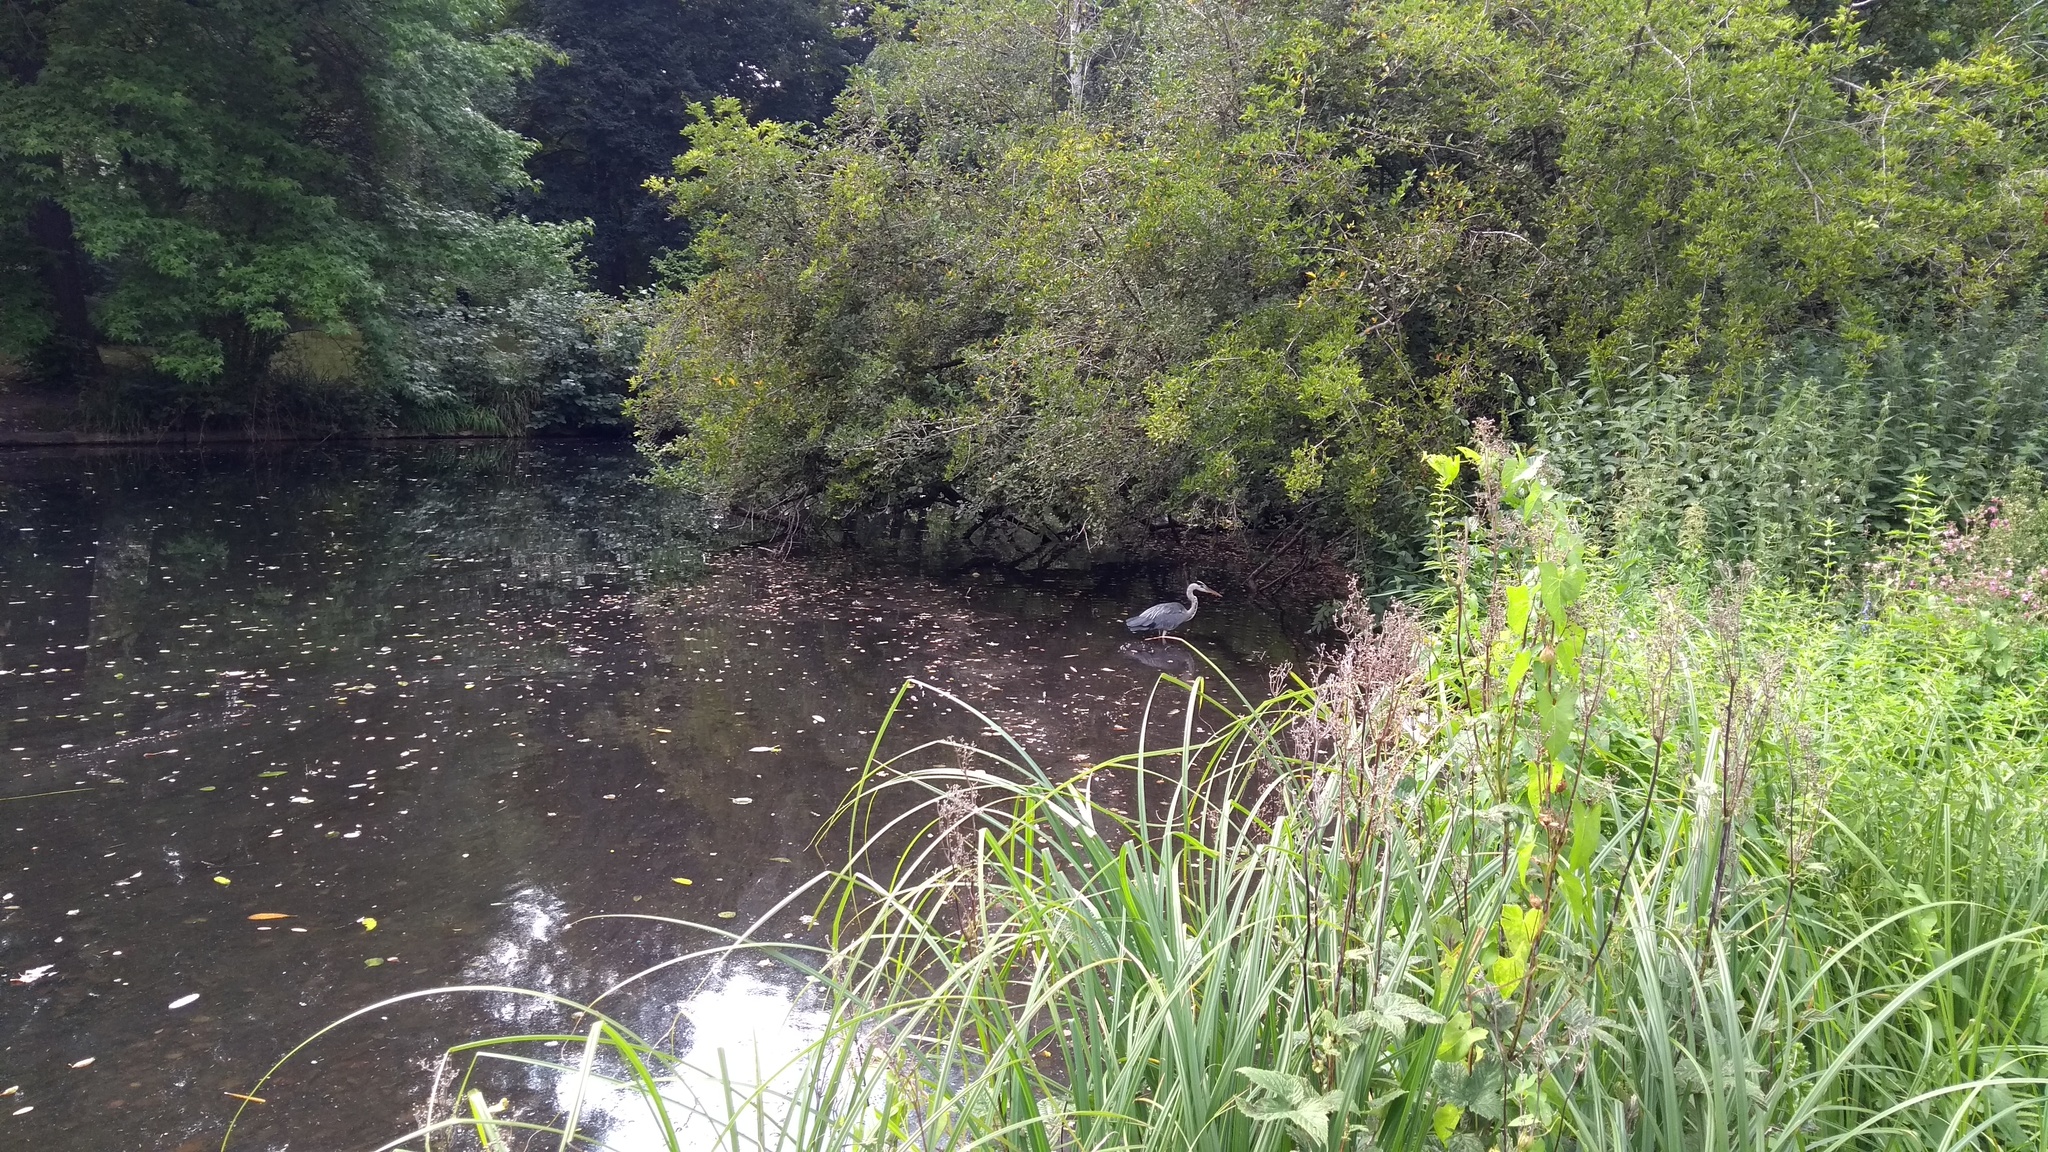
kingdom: Animalia
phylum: Chordata
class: Aves
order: Pelecaniformes
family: Ardeidae
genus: Ardea
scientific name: Ardea cinerea
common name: Grey heron
